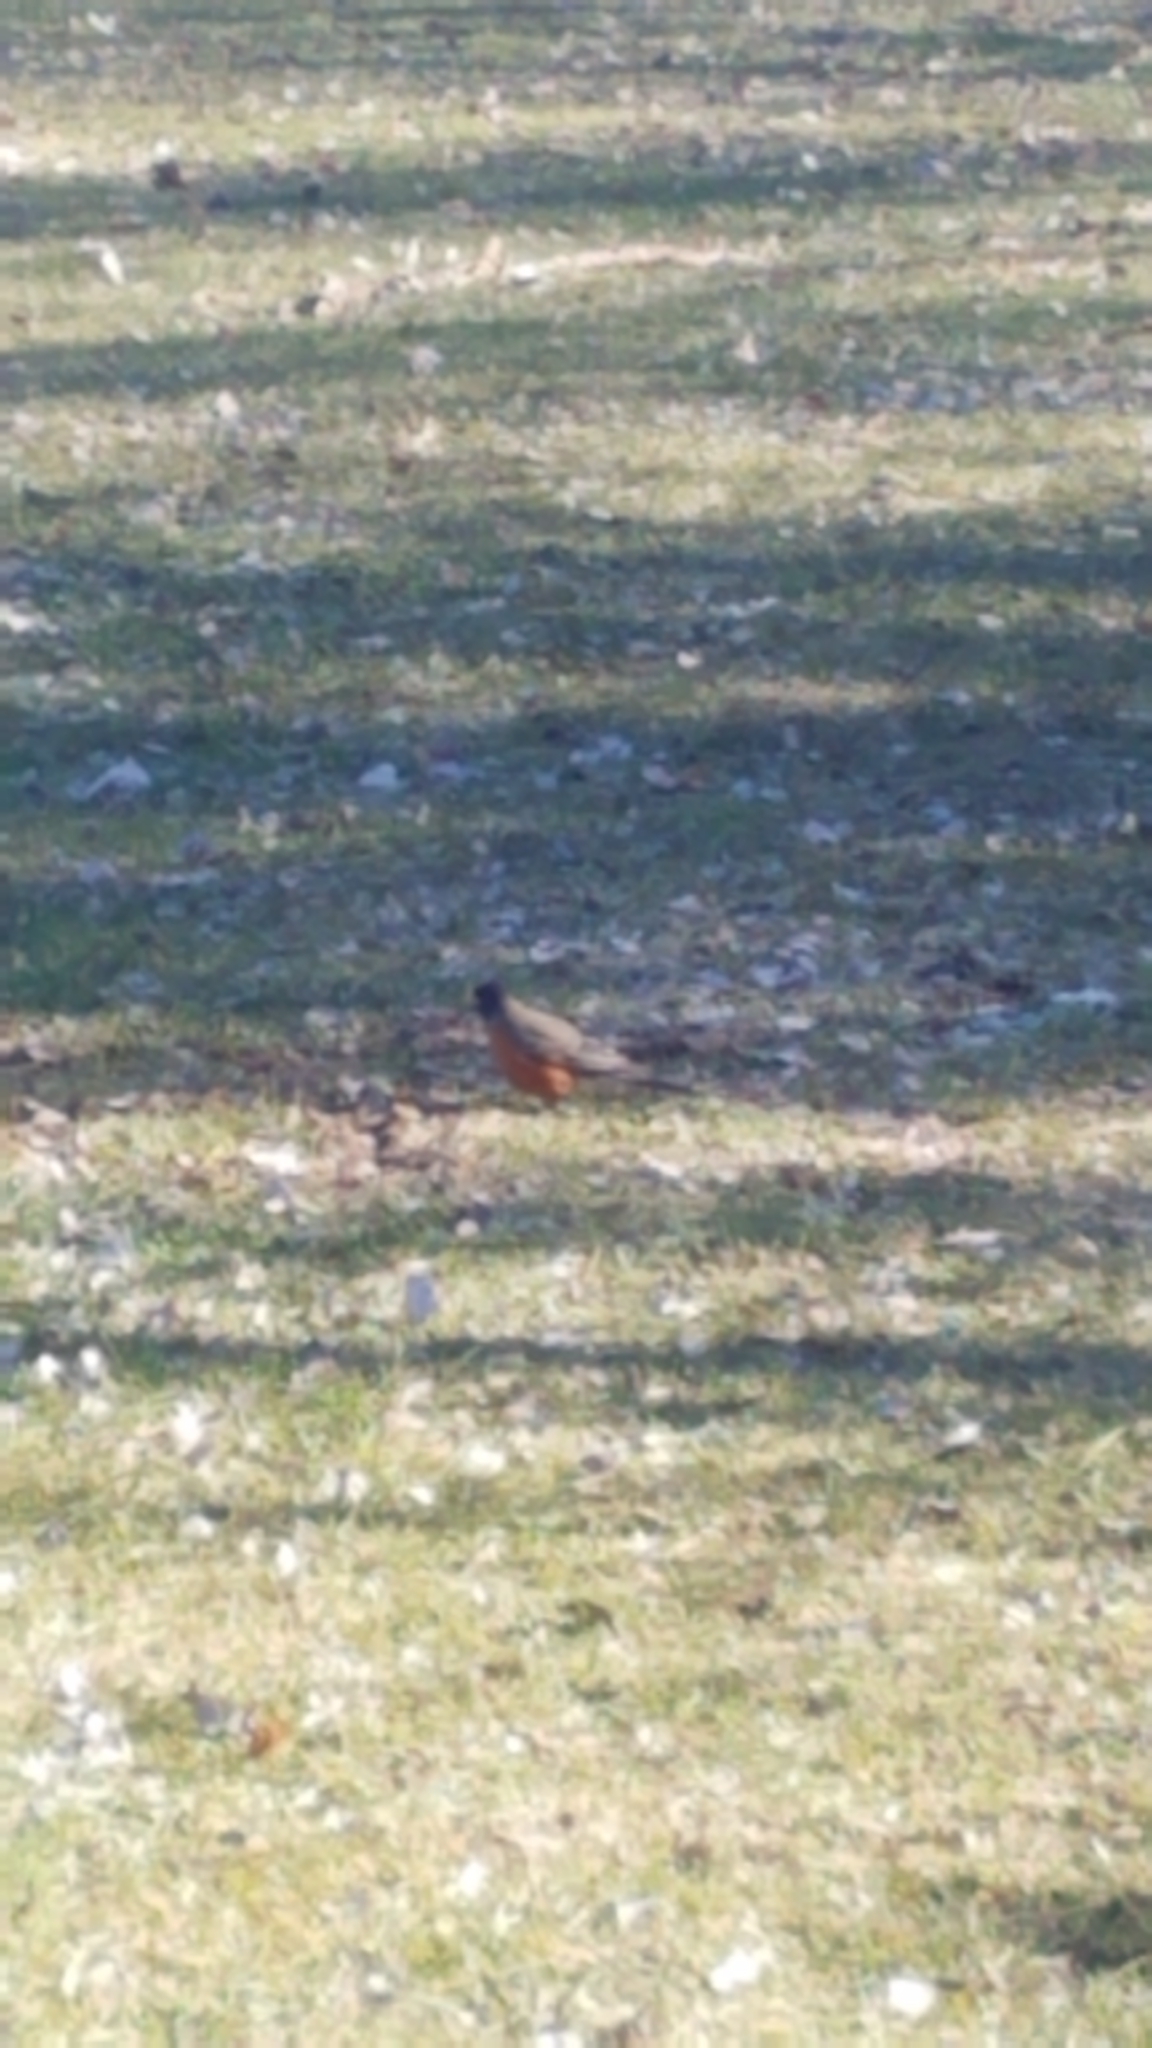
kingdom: Animalia
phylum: Chordata
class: Aves
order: Passeriformes
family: Turdidae
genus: Turdus
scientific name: Turdus migratorius
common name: American robin
